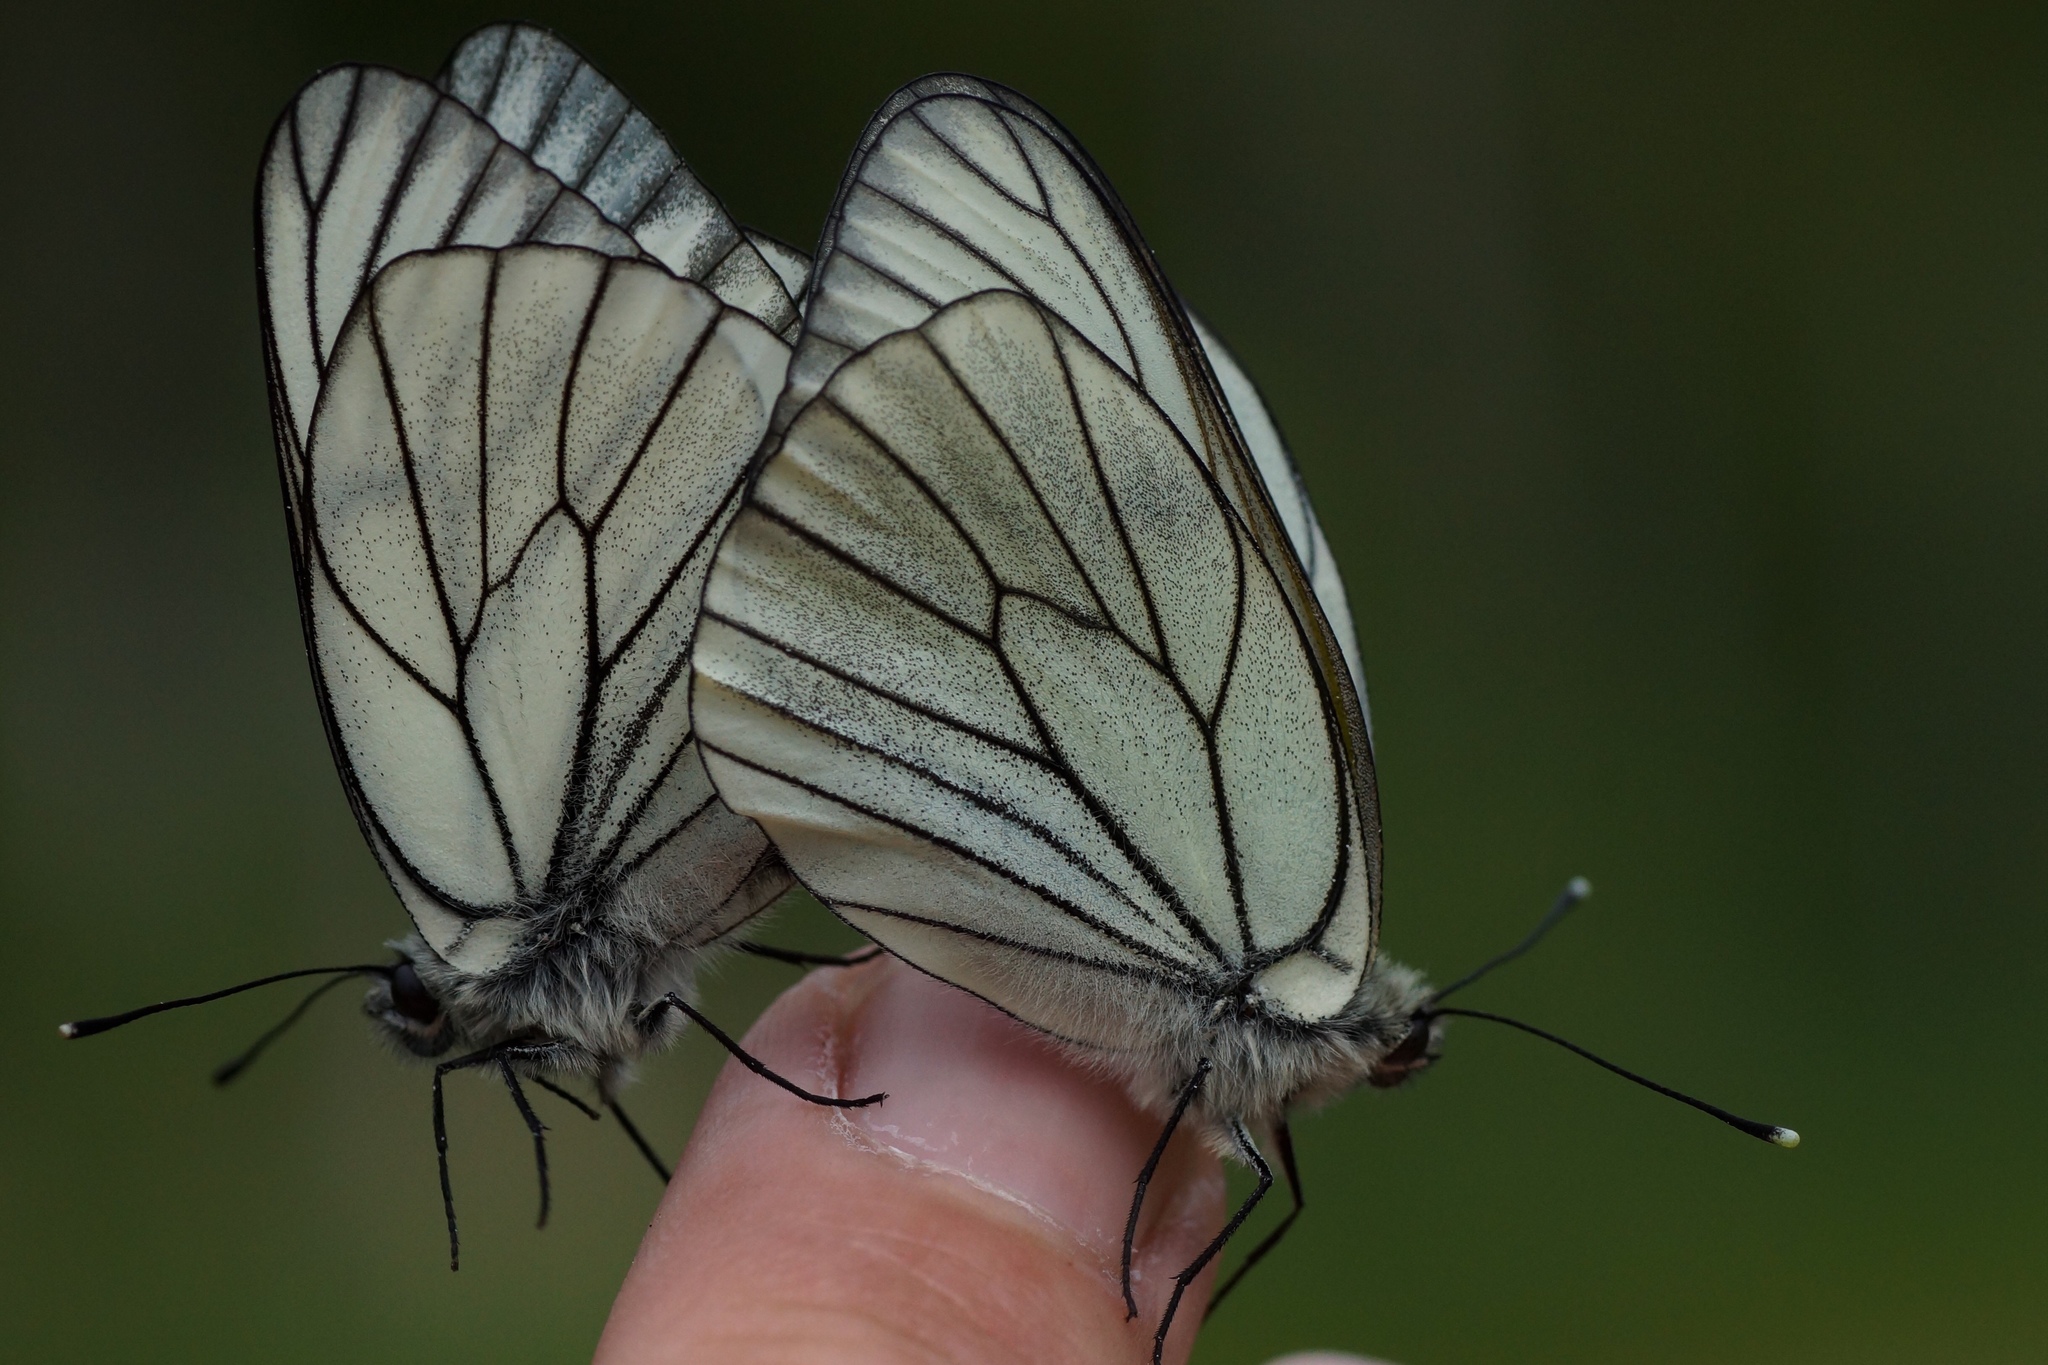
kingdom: Animalia
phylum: Arthropoda
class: Insecta
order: Lepidoptera
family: Pieridae
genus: Aporia
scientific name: Aporia crataegi
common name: Black-veined white
